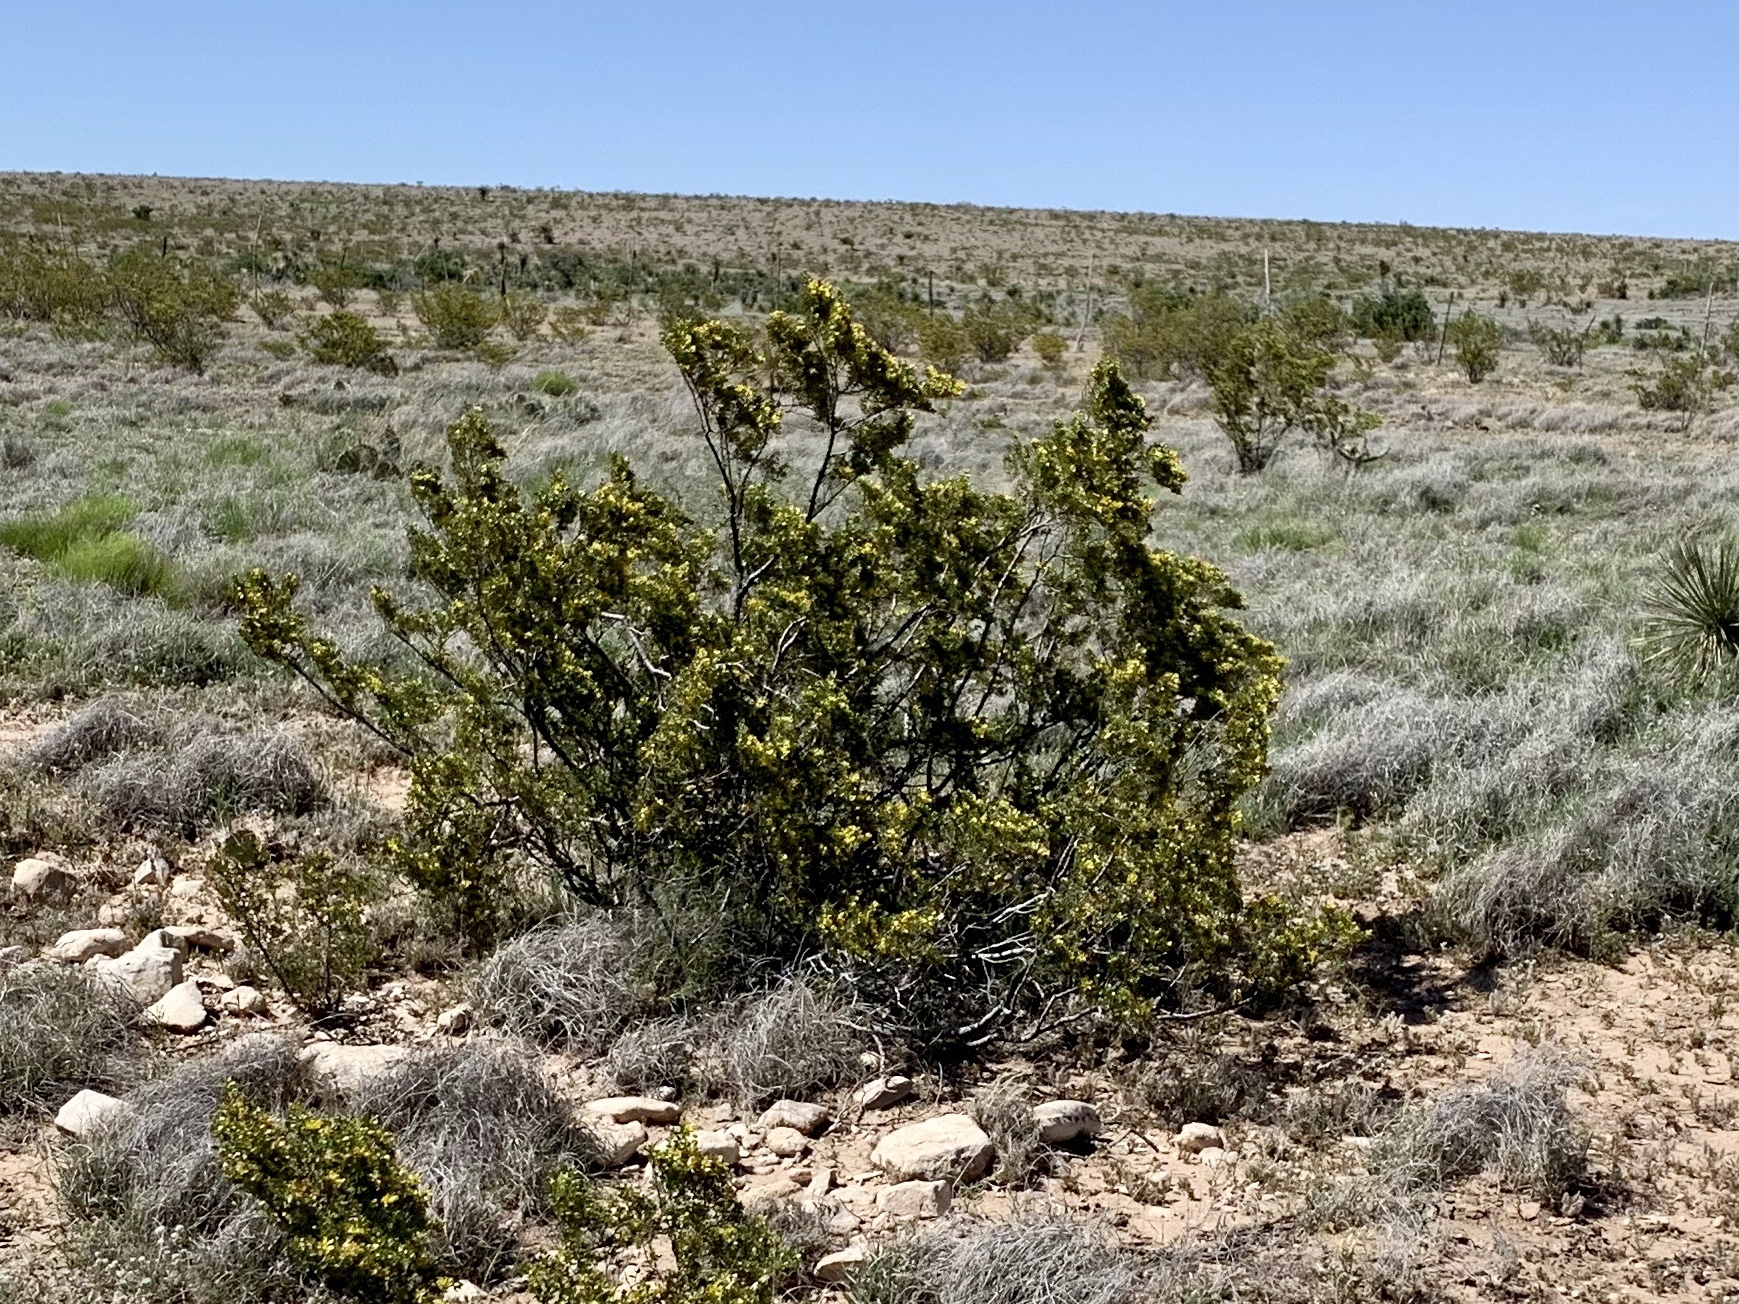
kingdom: Plantae
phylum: Tracheophyta
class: Magnoliopsida
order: Zygophyllales
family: Zygophyllaceae
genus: Larrea
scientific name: Larrea tridentata
